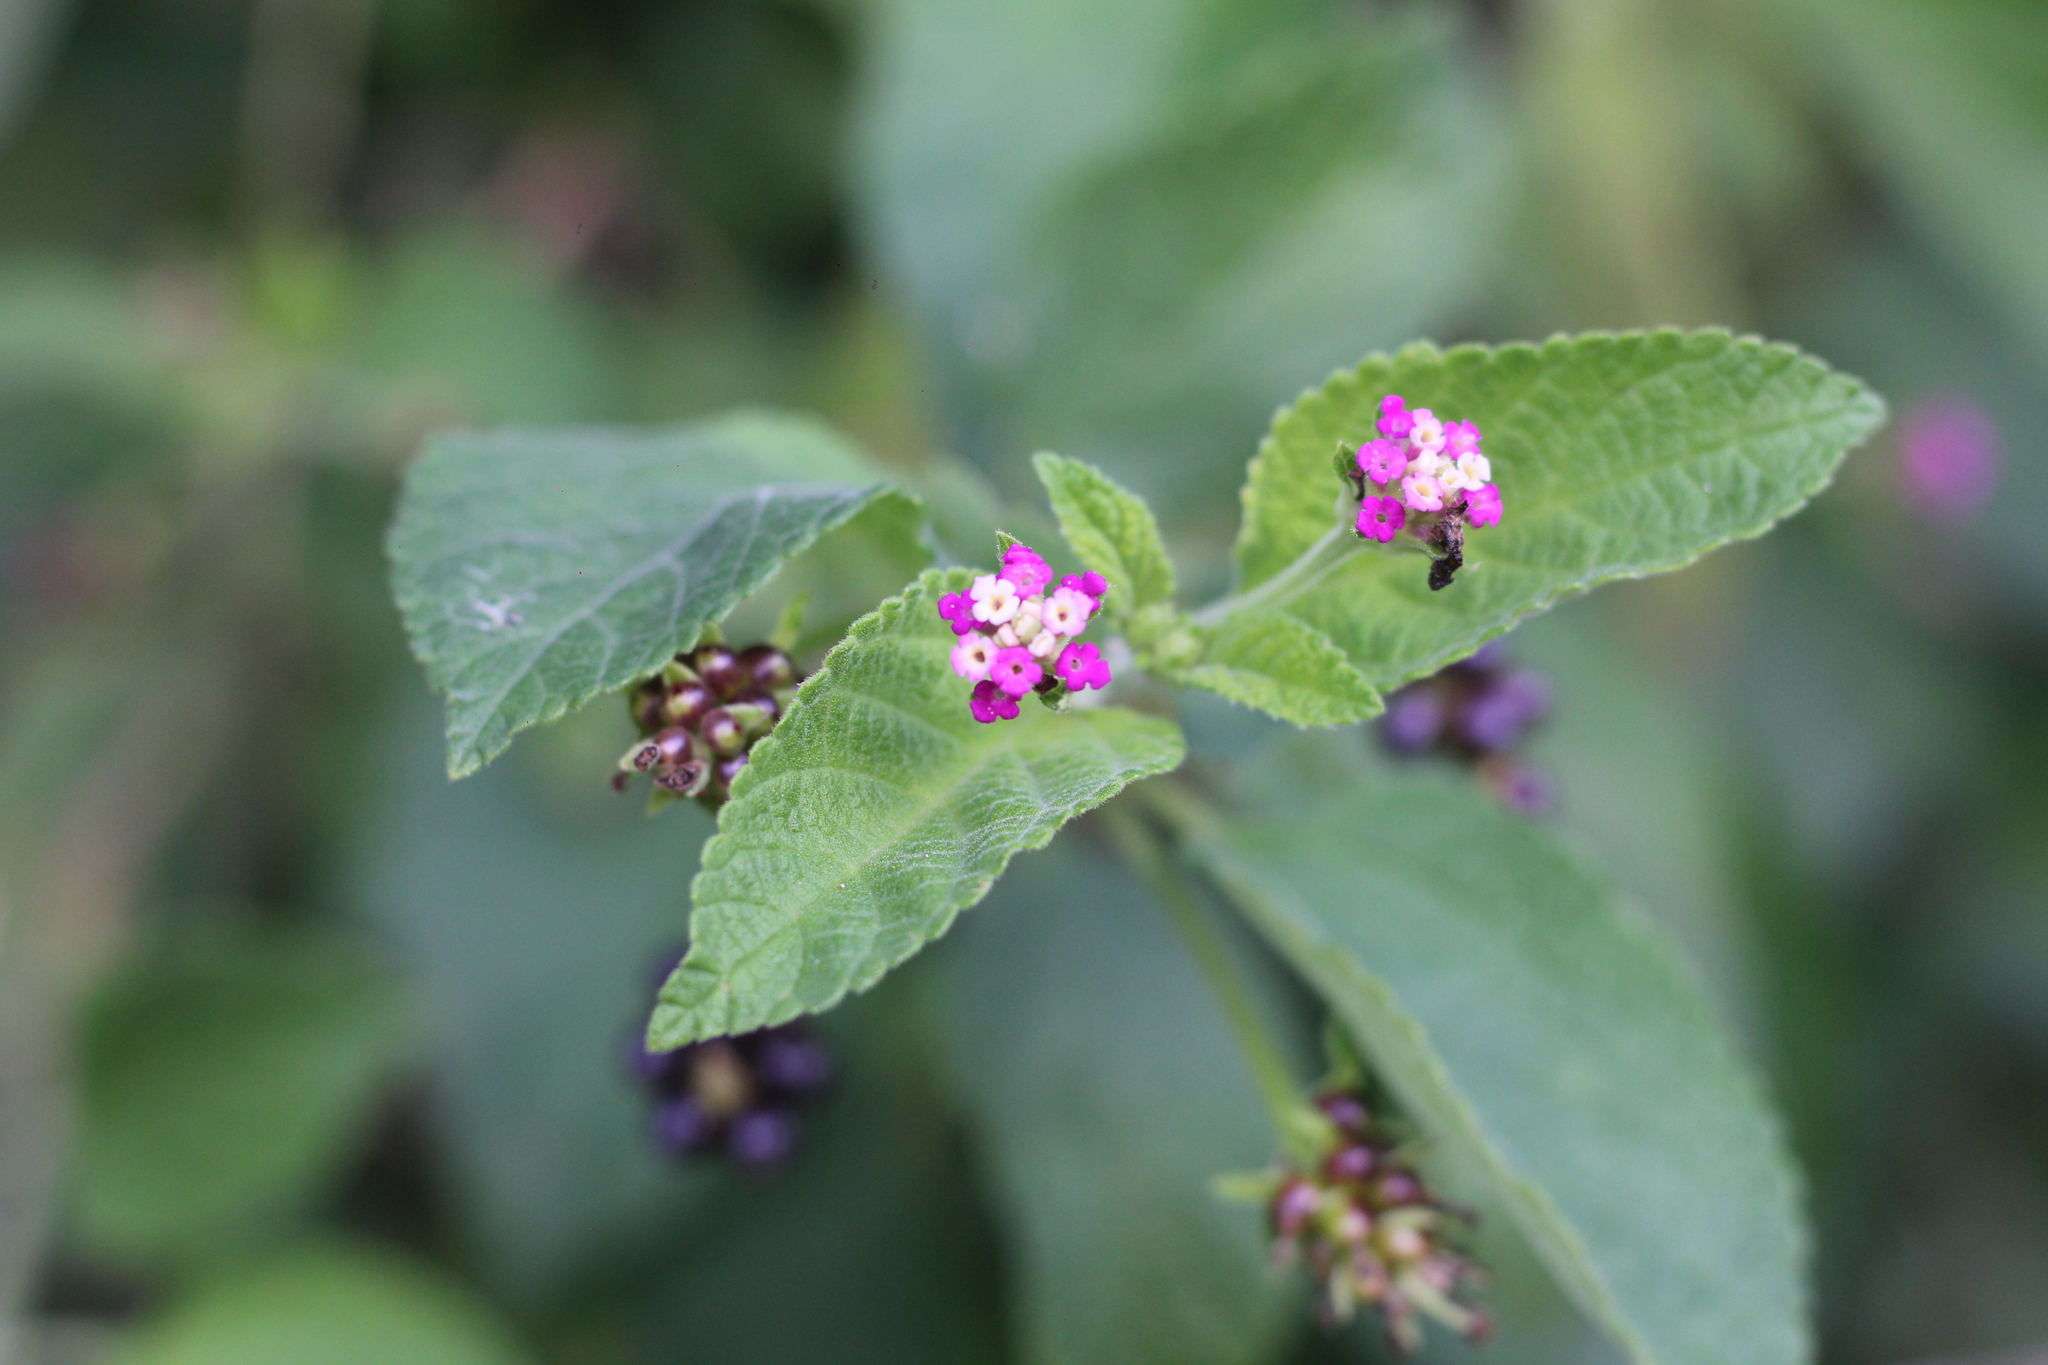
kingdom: Plantae
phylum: Tracheophyta
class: Magnoliopsida
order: Lamiales
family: Verbenaceae
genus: Lantana
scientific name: Lantana fucata
